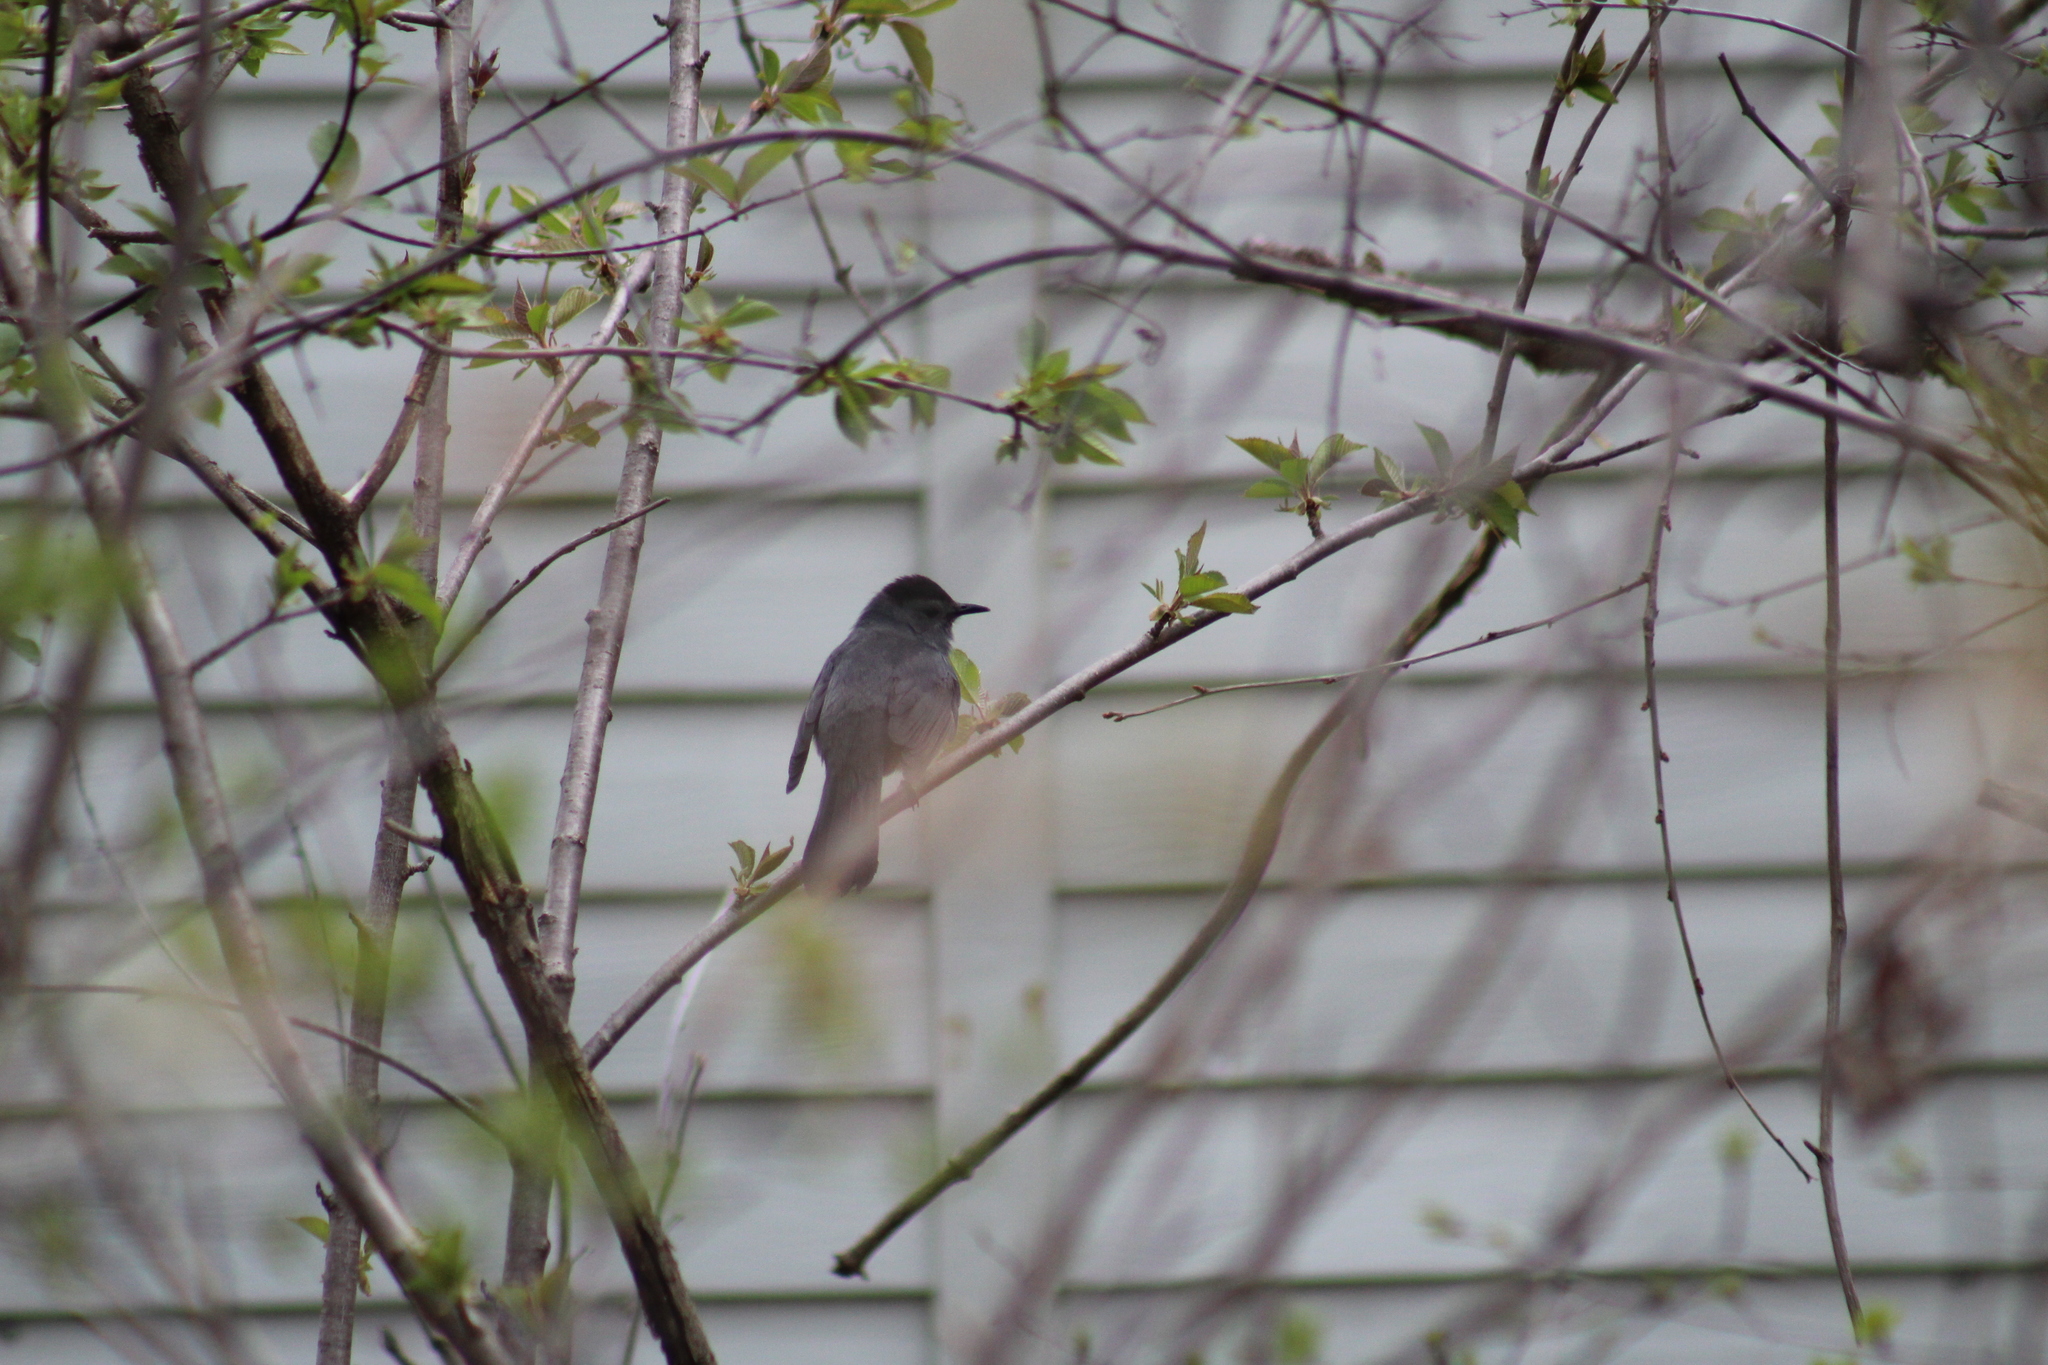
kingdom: Animalia
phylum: Chordata
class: Aves
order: Passeriformes
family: Mimidae
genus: Dumetella
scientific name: Dumetella carolinensis
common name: Gray catbird
